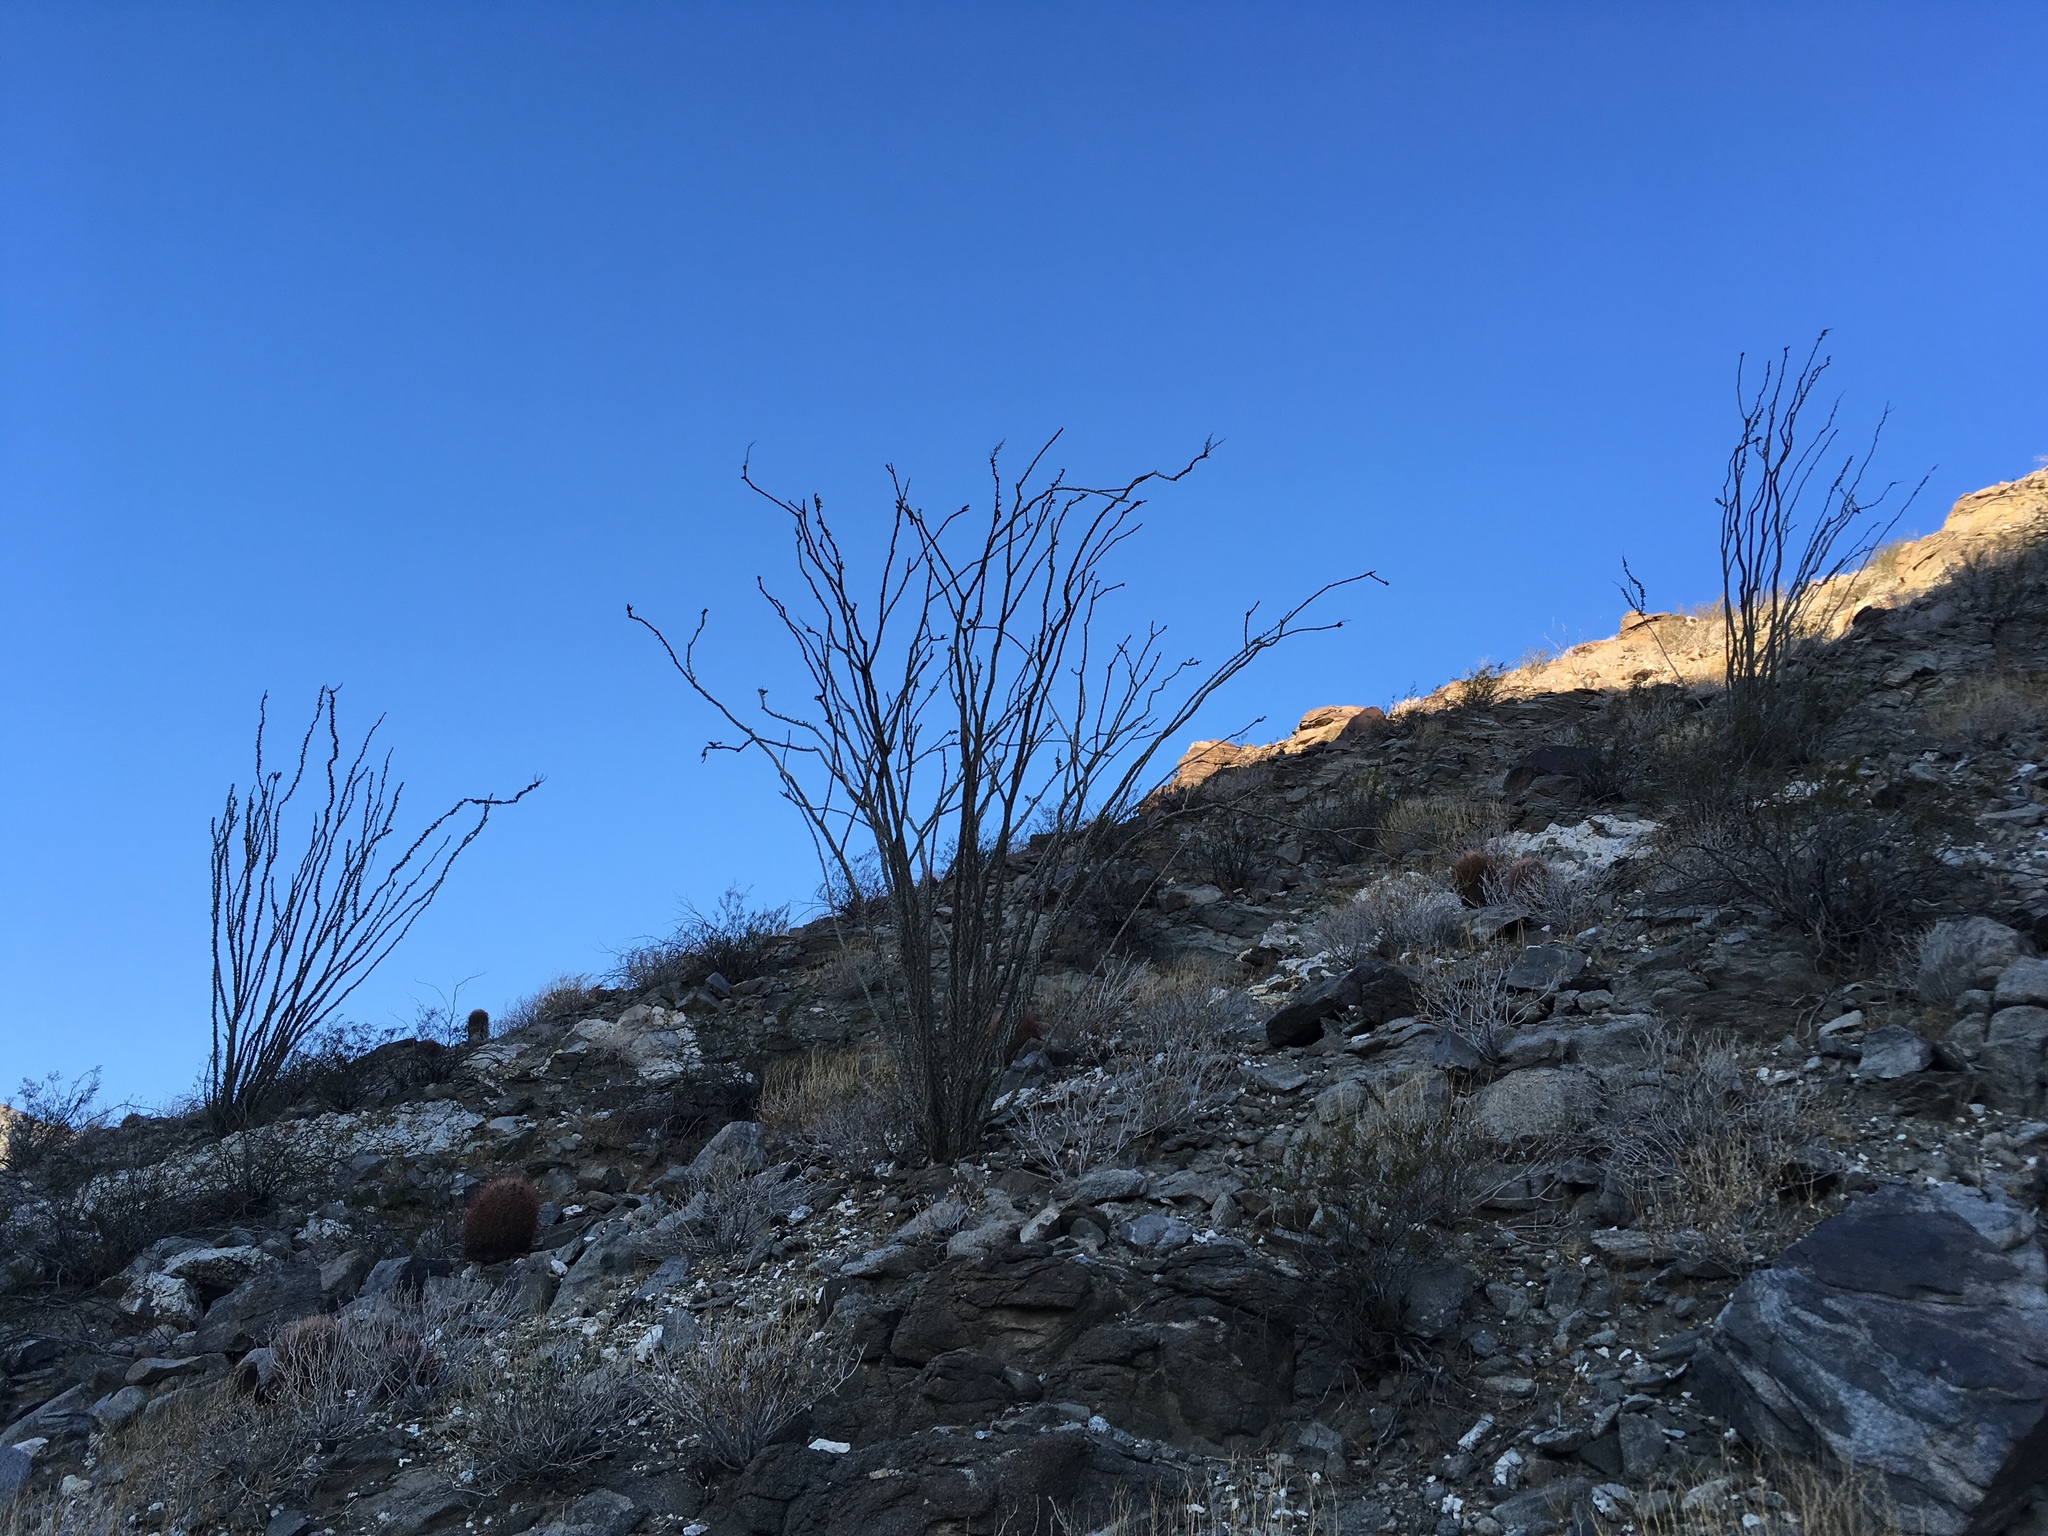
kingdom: Plantae
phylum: Tracheophyta
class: Magnoliopsida
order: Ericales
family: Fouquieriaceae
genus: Fouquieria
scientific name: Fouquieria splendens
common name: Vine-cactus
